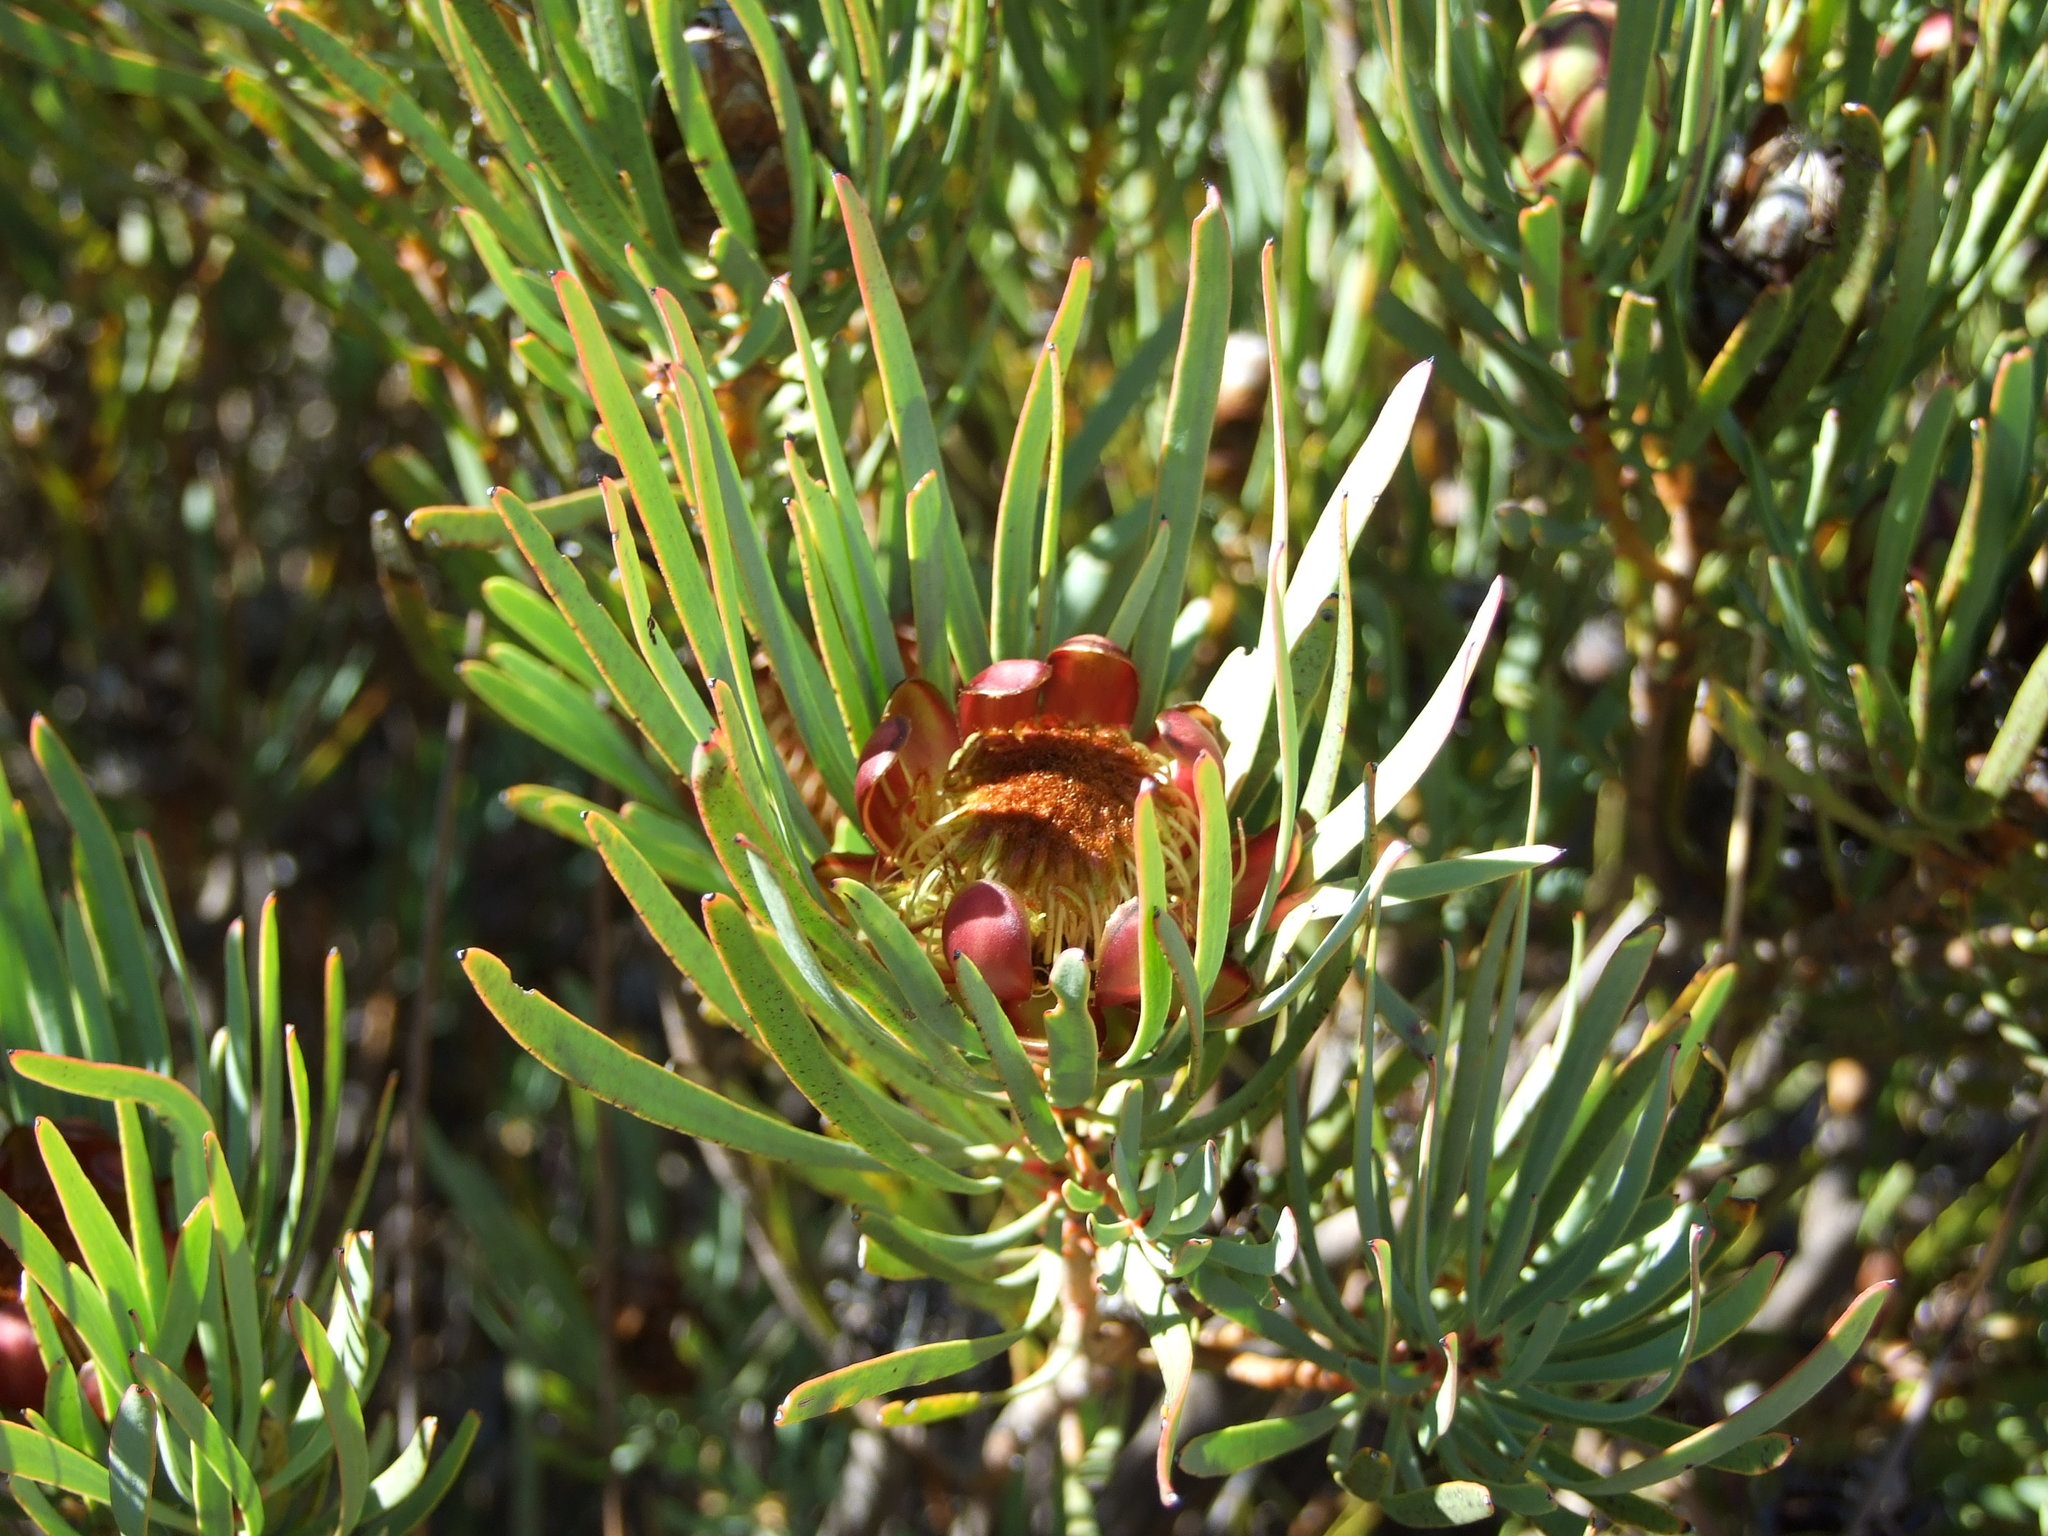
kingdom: Plantae
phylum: Tracheophyta
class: Magnoliopsida
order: Proteales
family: Proteaceae
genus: Protea
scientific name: Protea acuminata
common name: Black-rim sugarbush
